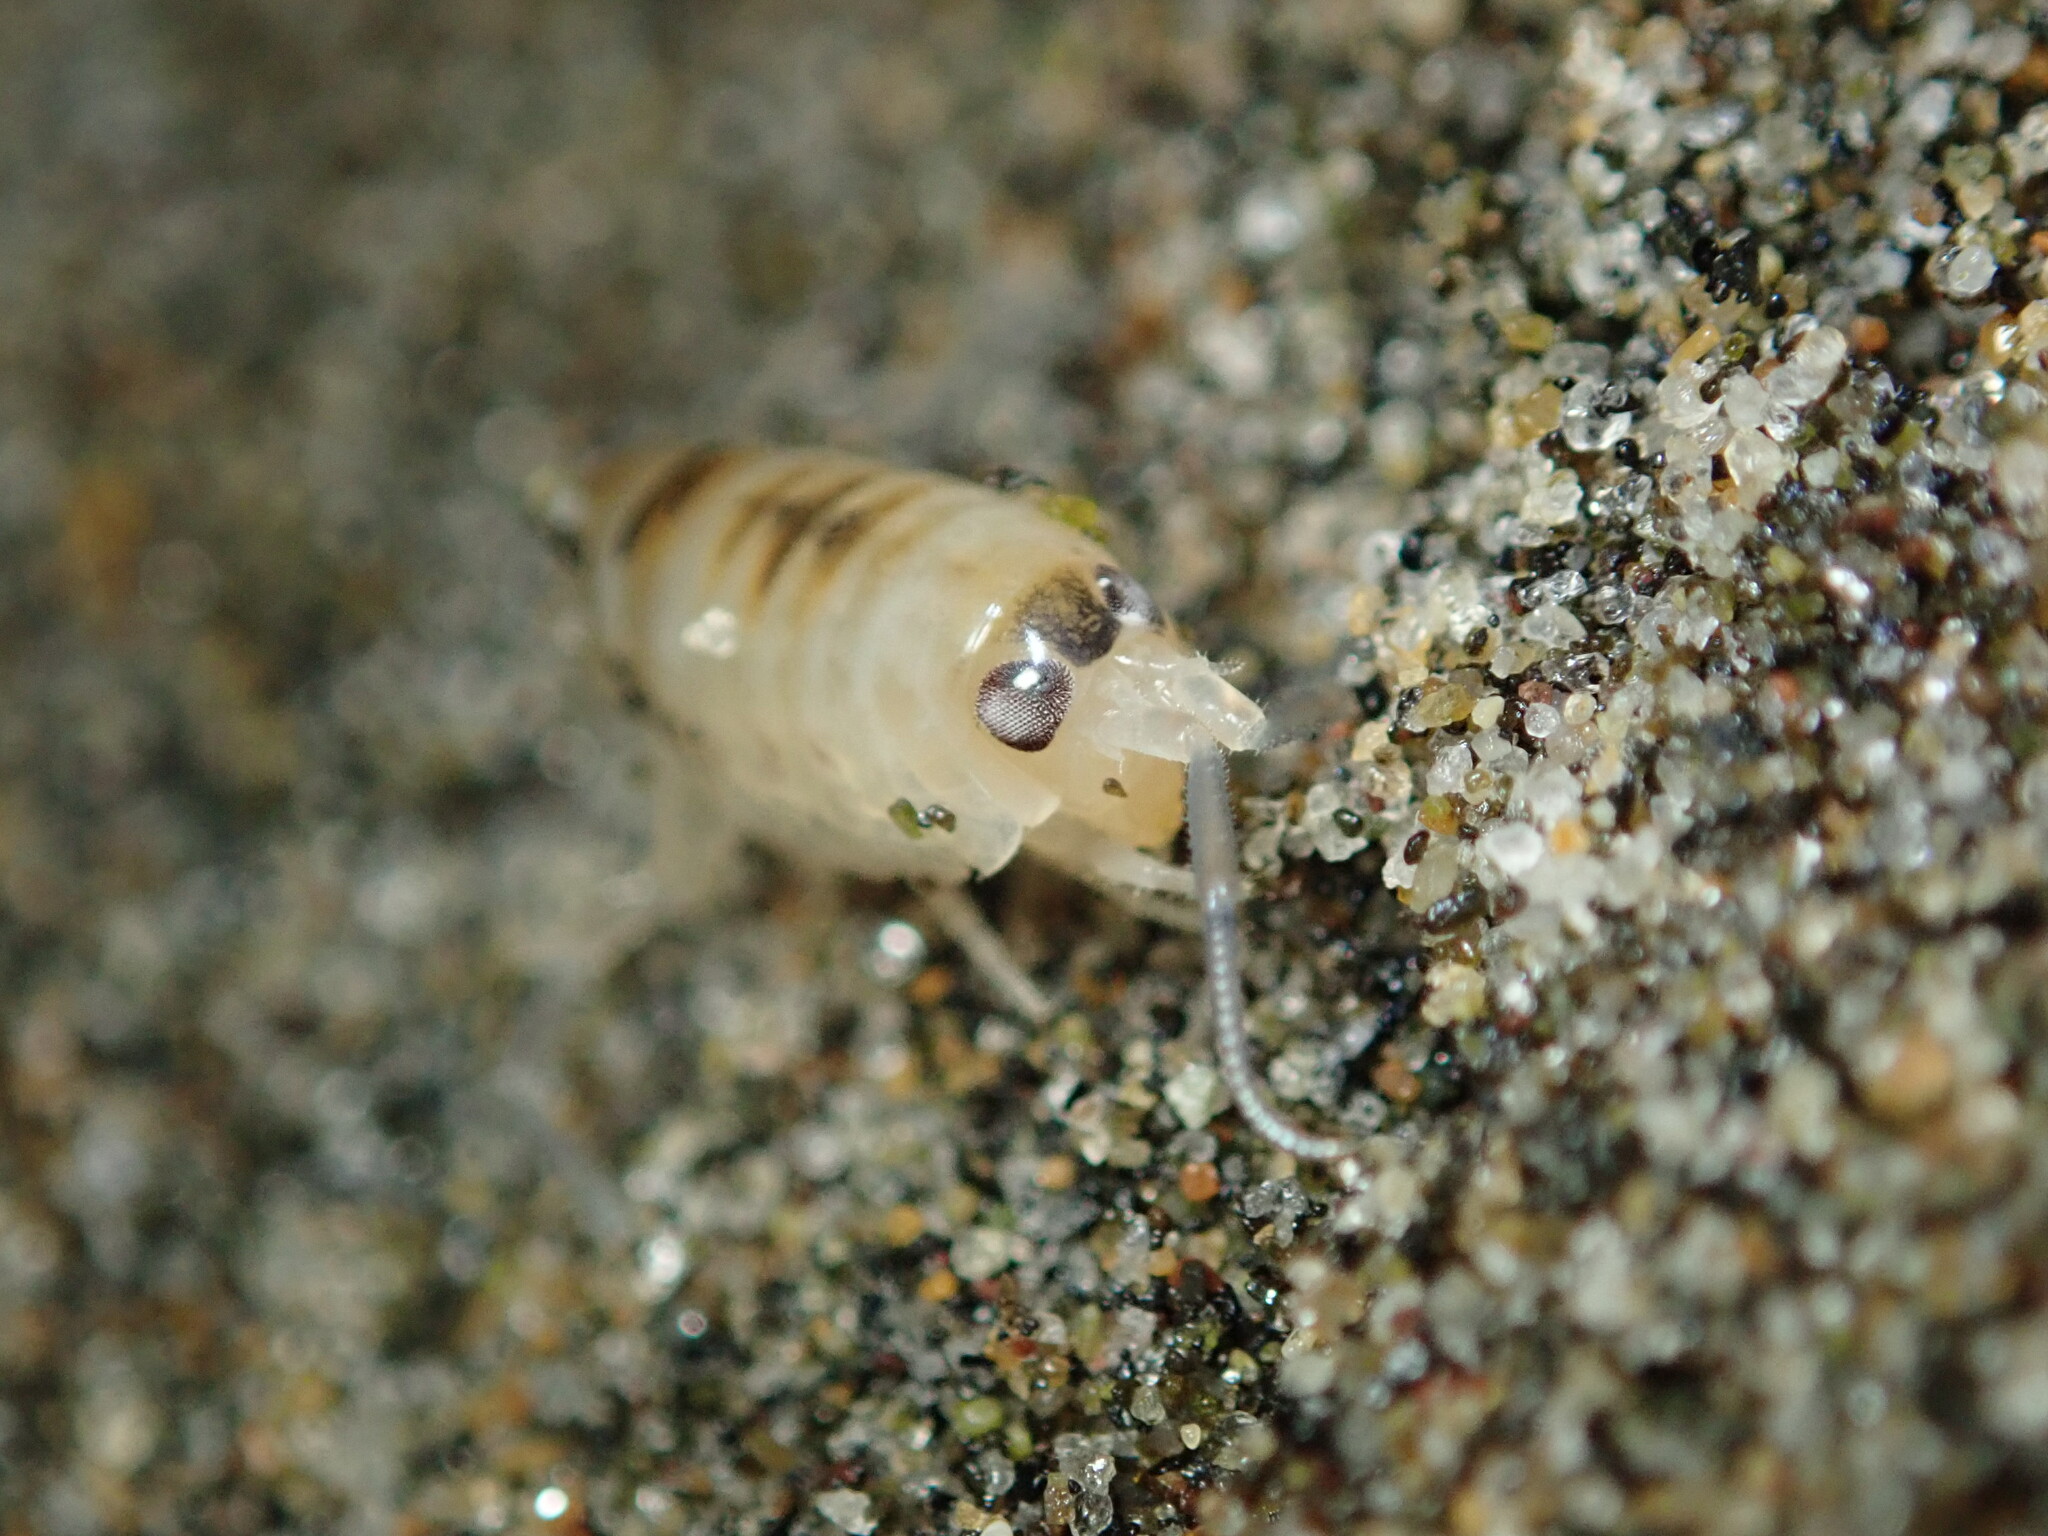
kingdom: Animalia
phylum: Arthropoda
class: Malacostraca
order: Amphipoda
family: Talitridae
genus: Megalorchestia
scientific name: Megalorchestia columbiana
